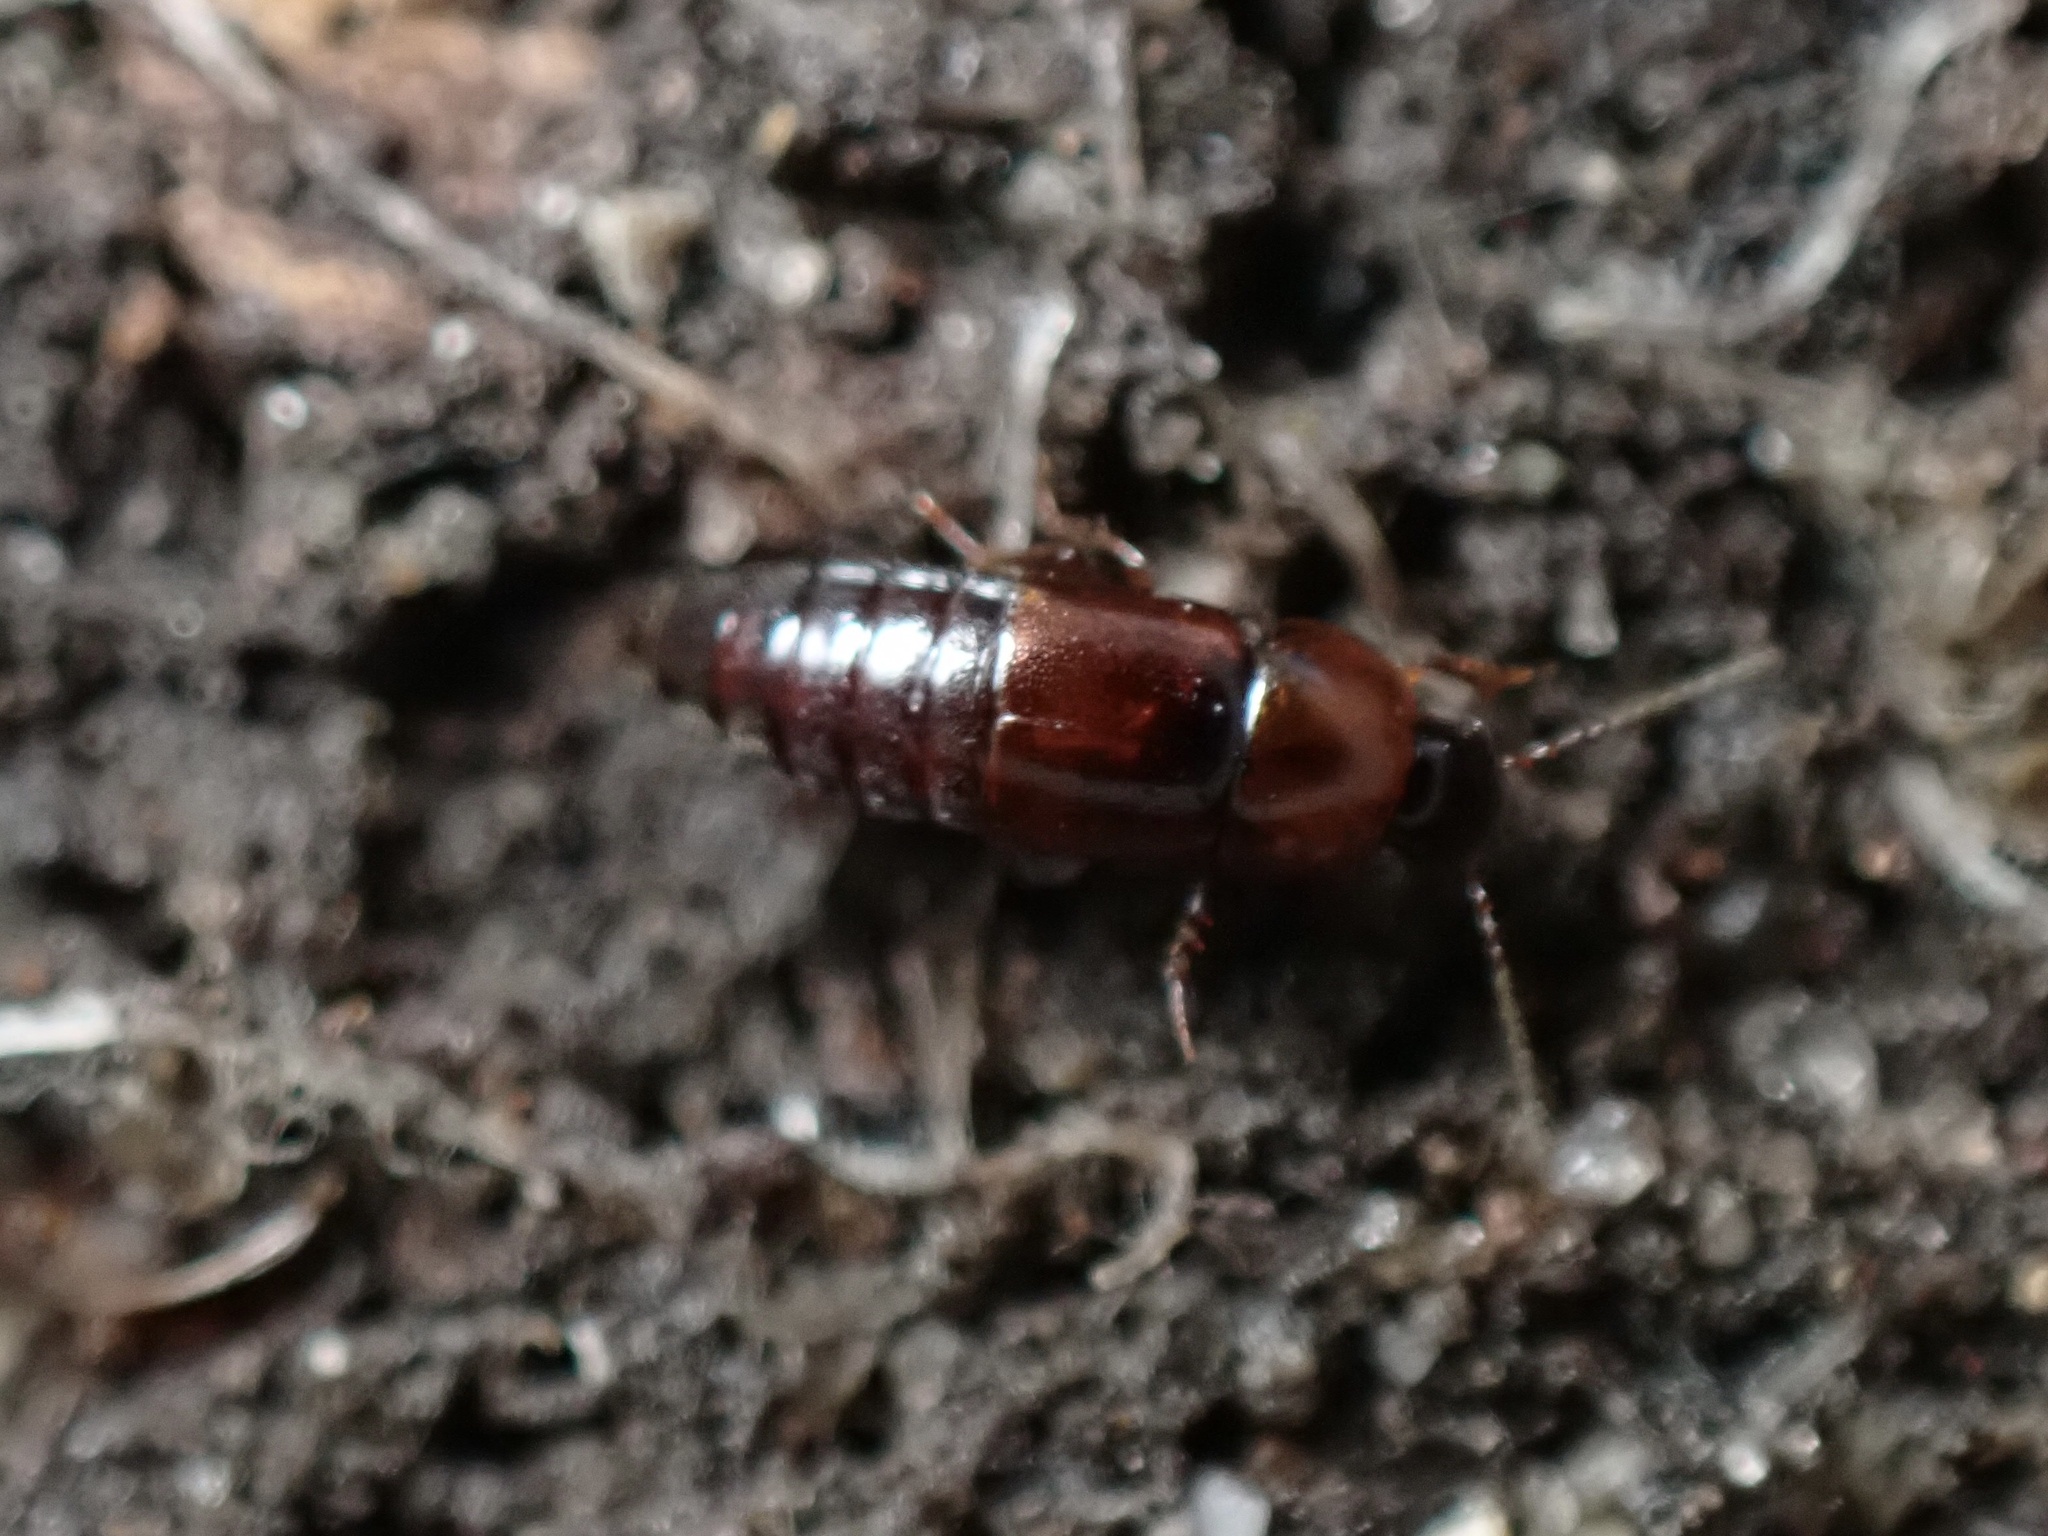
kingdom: Animalia
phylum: Arthropoda
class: Insecta
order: Coleoptera
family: Staphylinidae
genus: Tachinus
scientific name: Tachinus corticinus
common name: Staph beetle
